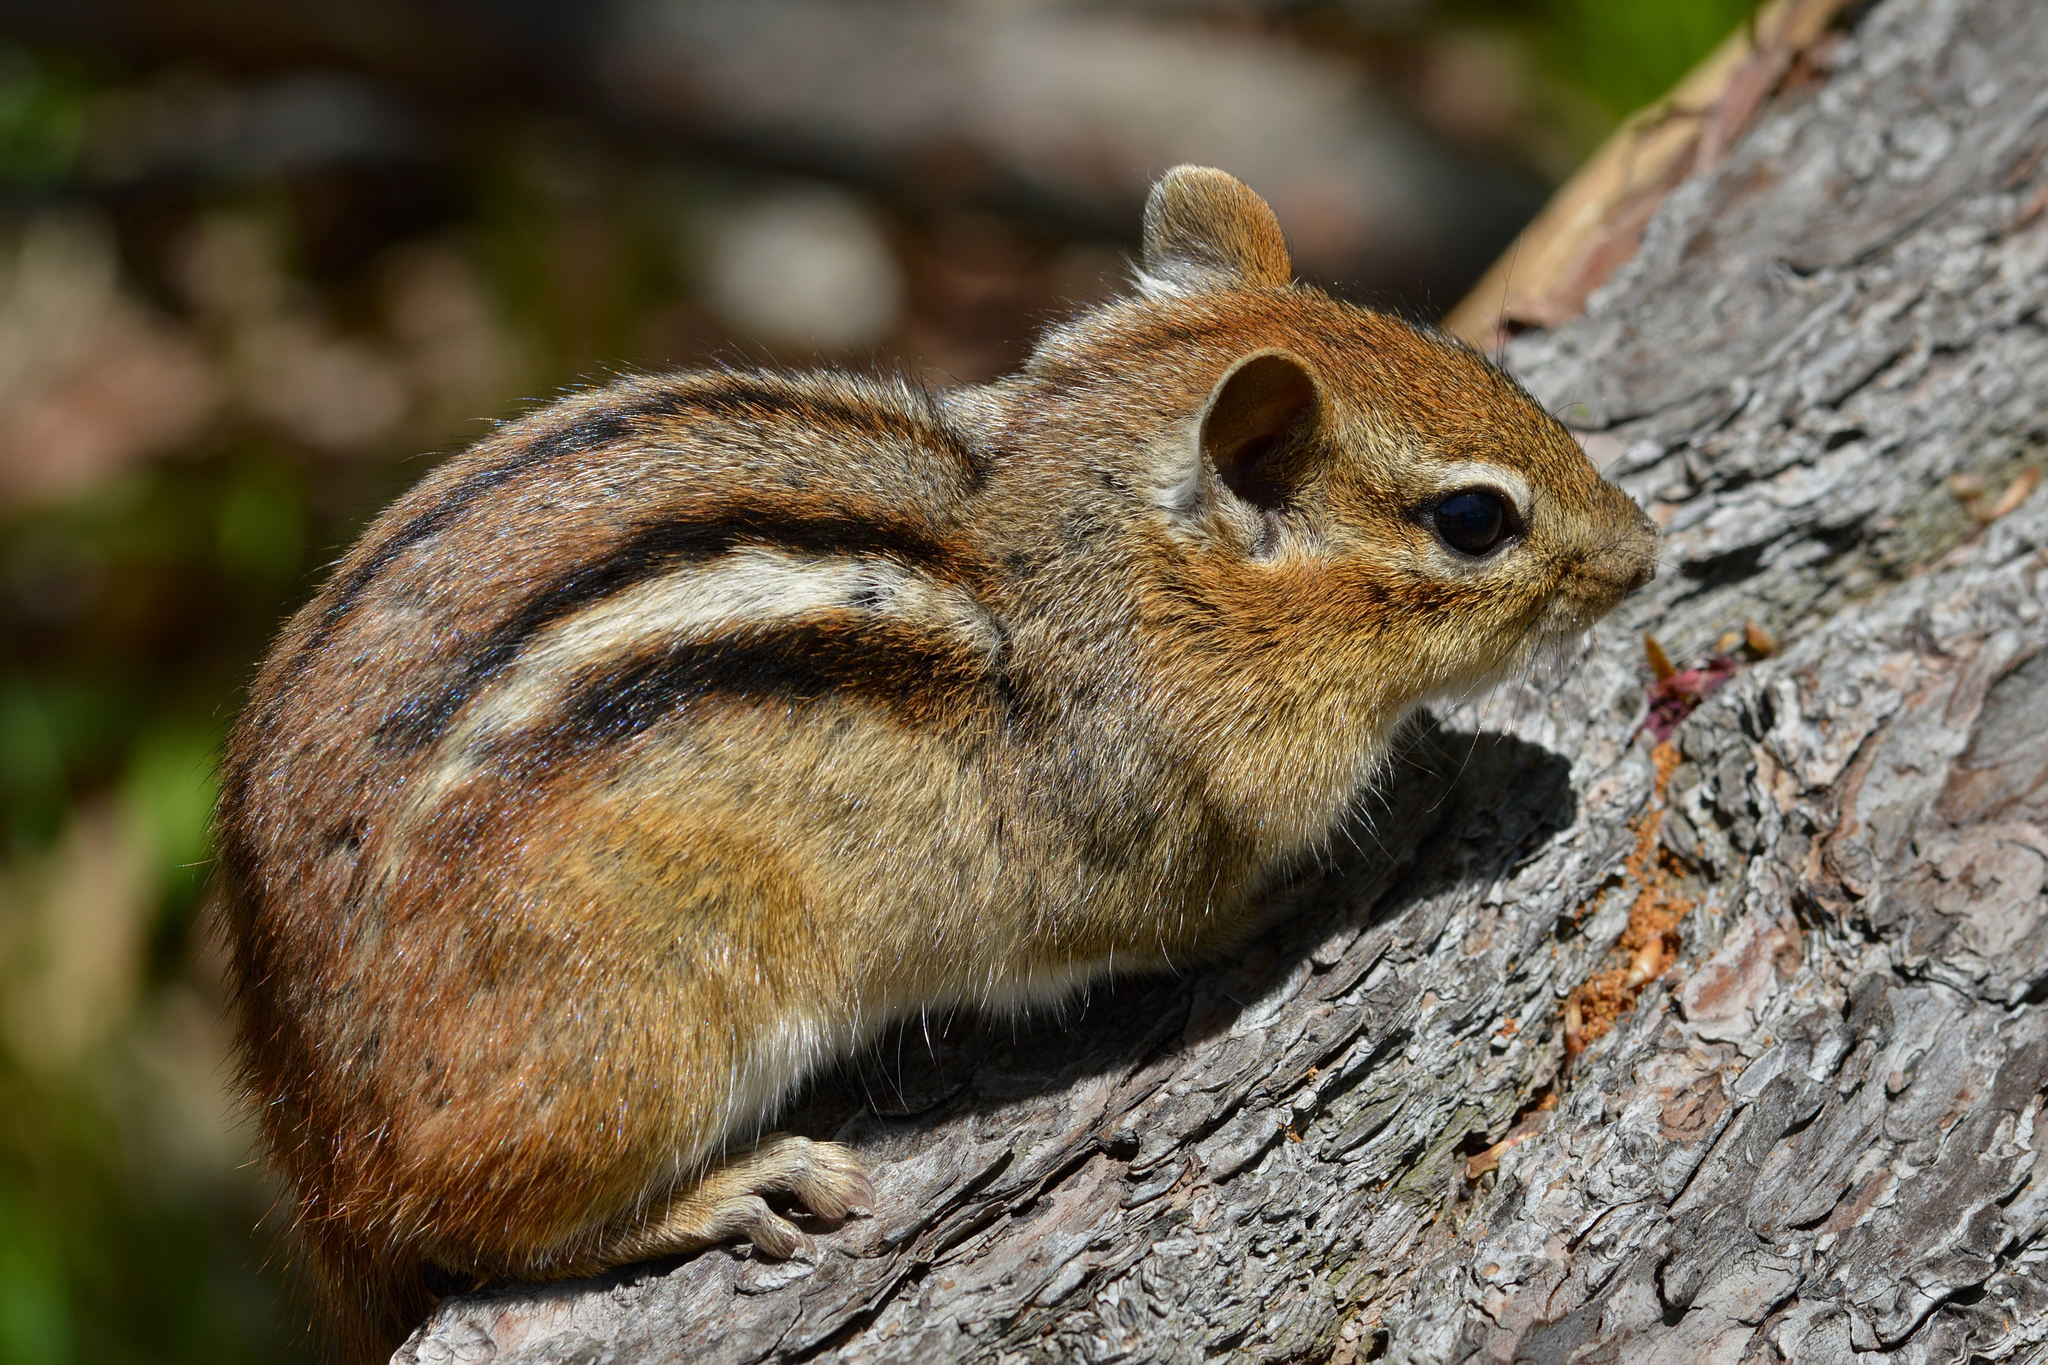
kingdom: Animalia
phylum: Chordata
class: Mammalia
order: Rodentia
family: Sciuridae
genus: Tamias
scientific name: Tamias striatus
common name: Eastern chipmunk
